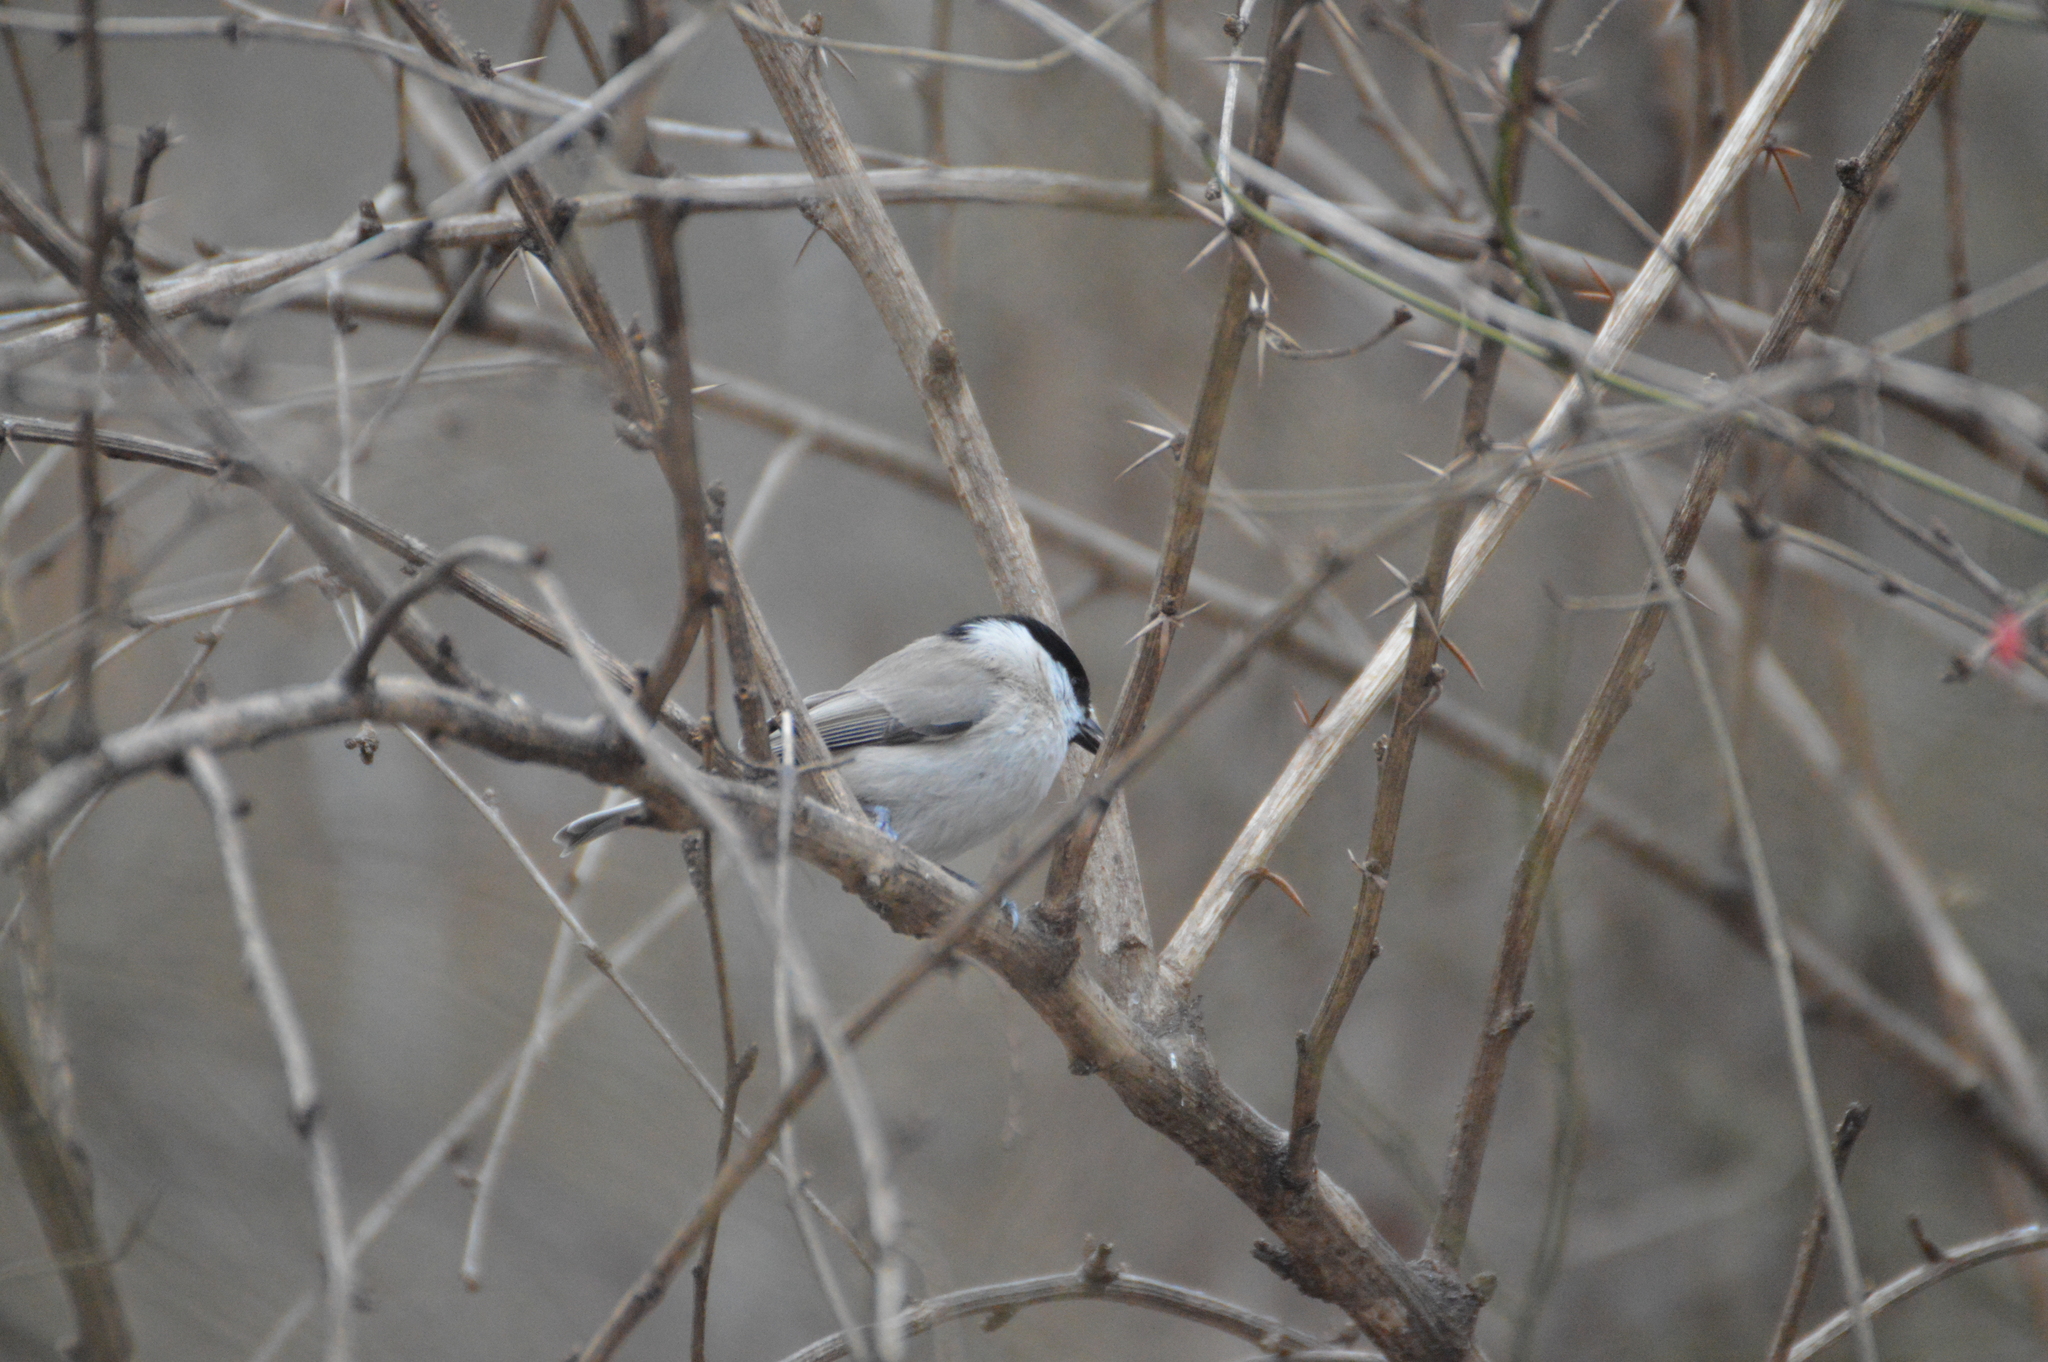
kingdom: Animalia
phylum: Chordata
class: Aves
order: Passeriformes
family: Paridae
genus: Poecile
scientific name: Poecile palustris
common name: Marsh tit
